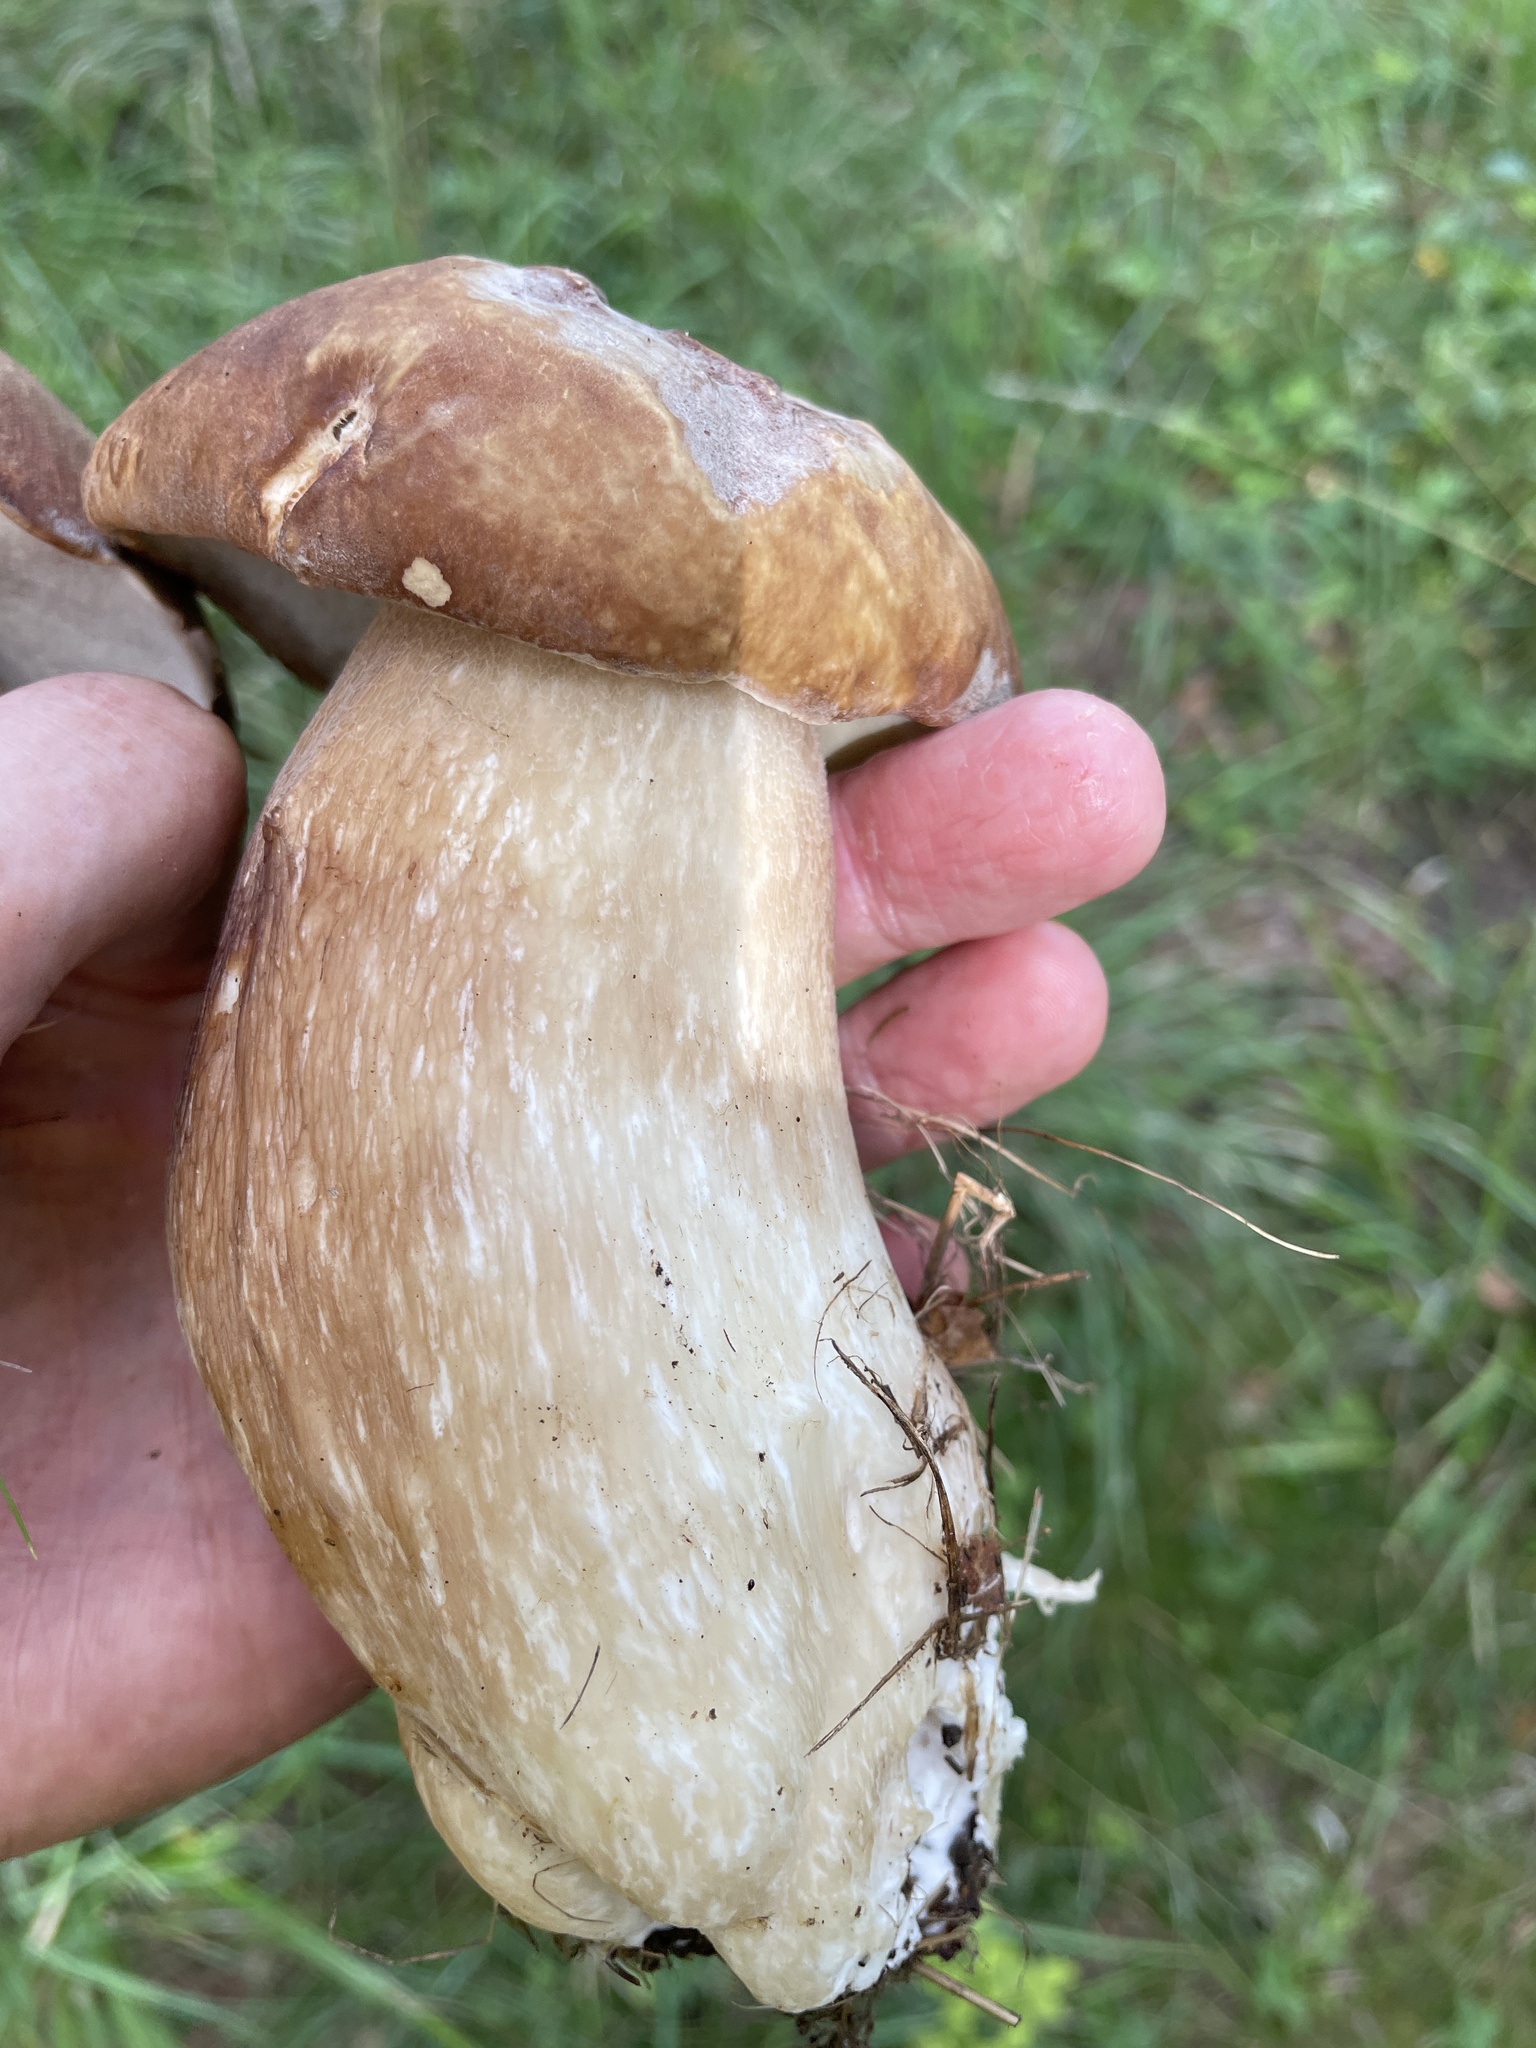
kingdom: Fungi
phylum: Basidiomycota
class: Agaricomycetes
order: Boletales
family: Boletaceae
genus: Boletus
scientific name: Boletus edulis
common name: Cep
